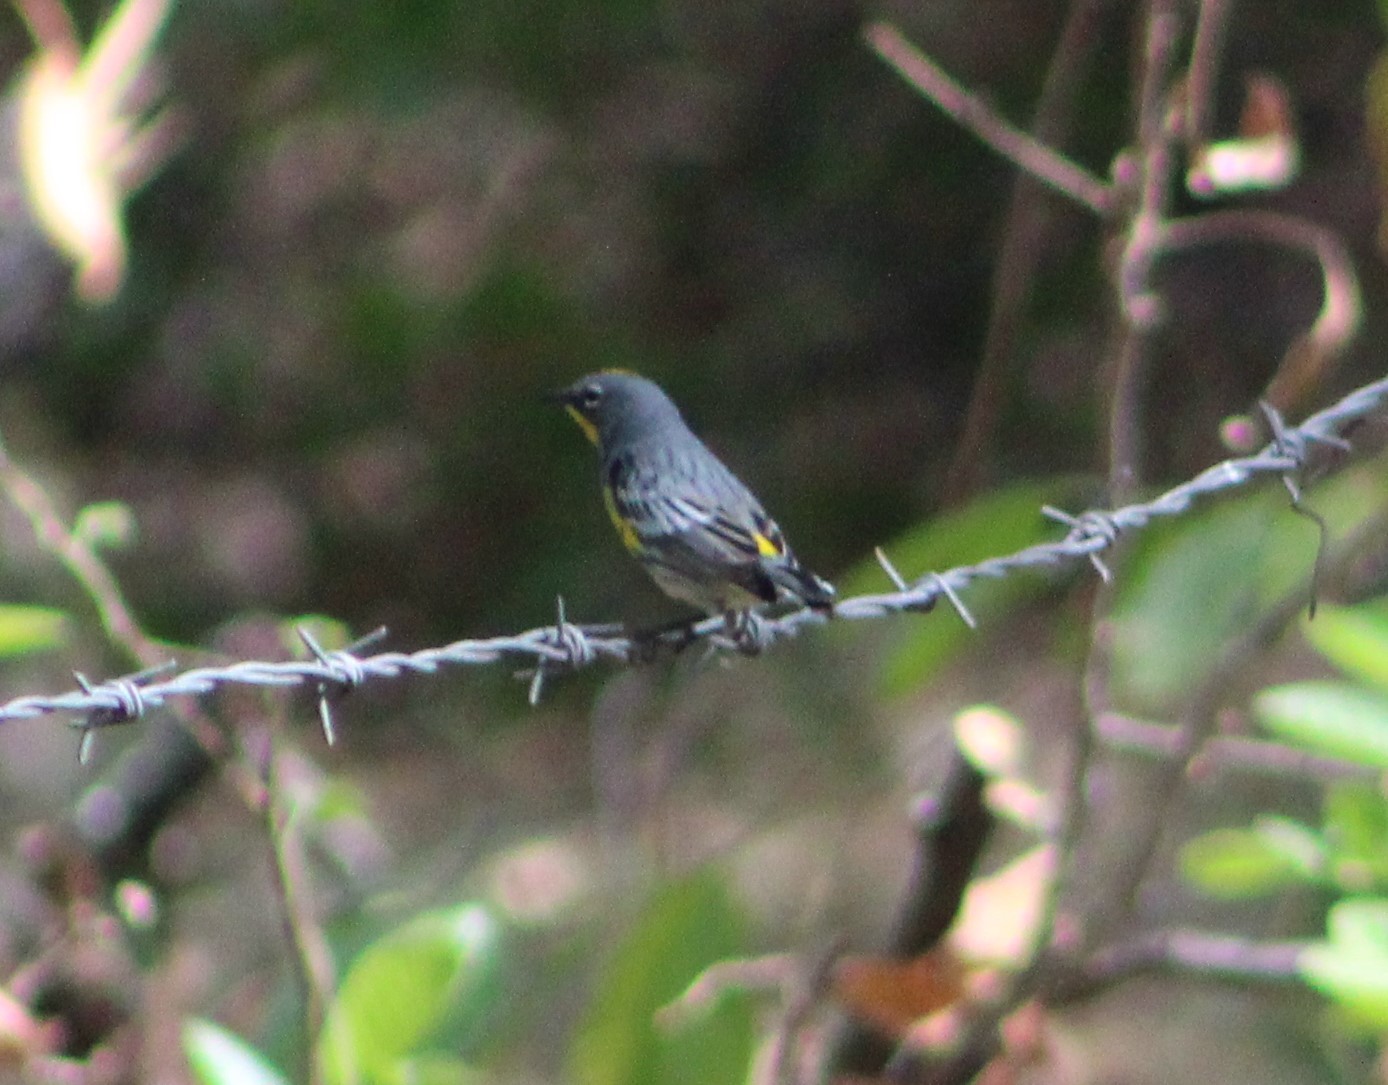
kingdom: Animalia
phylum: Chordata
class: Aves
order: Passeriformes
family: Parulidae
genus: Setophaga
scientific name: Setophaga coronata
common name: Myrtle warbler
